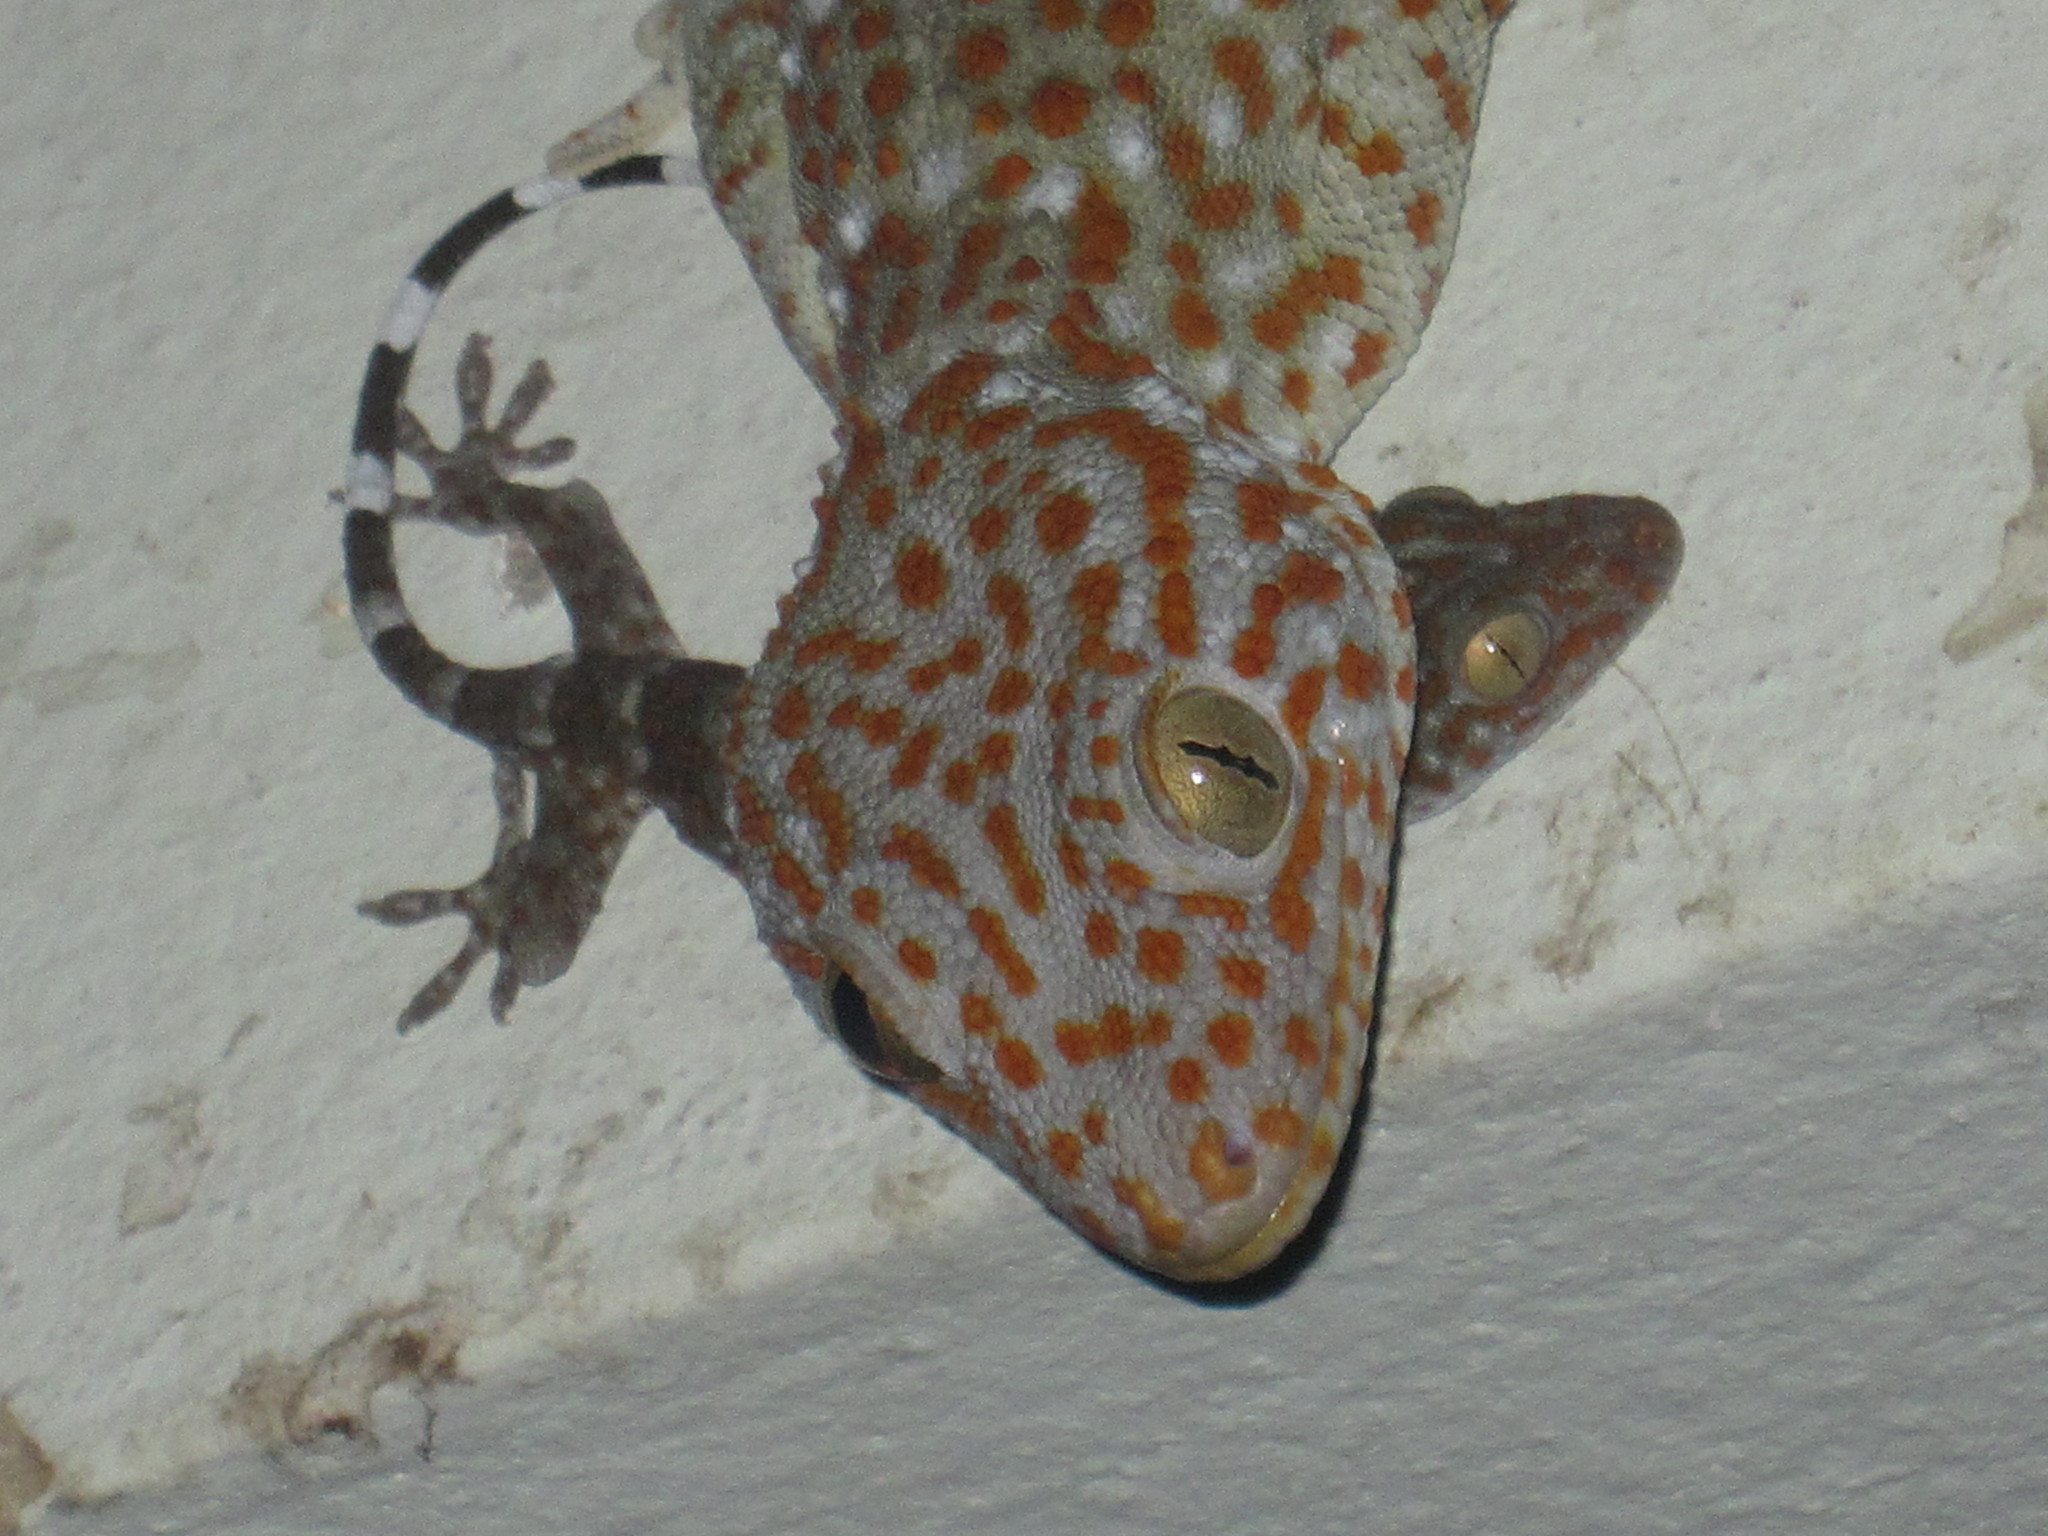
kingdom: Animalia
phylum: Chordata
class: Squamata
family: Gekkonidae
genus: Gekko
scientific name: Gekko gecko
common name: Tokay gecko
